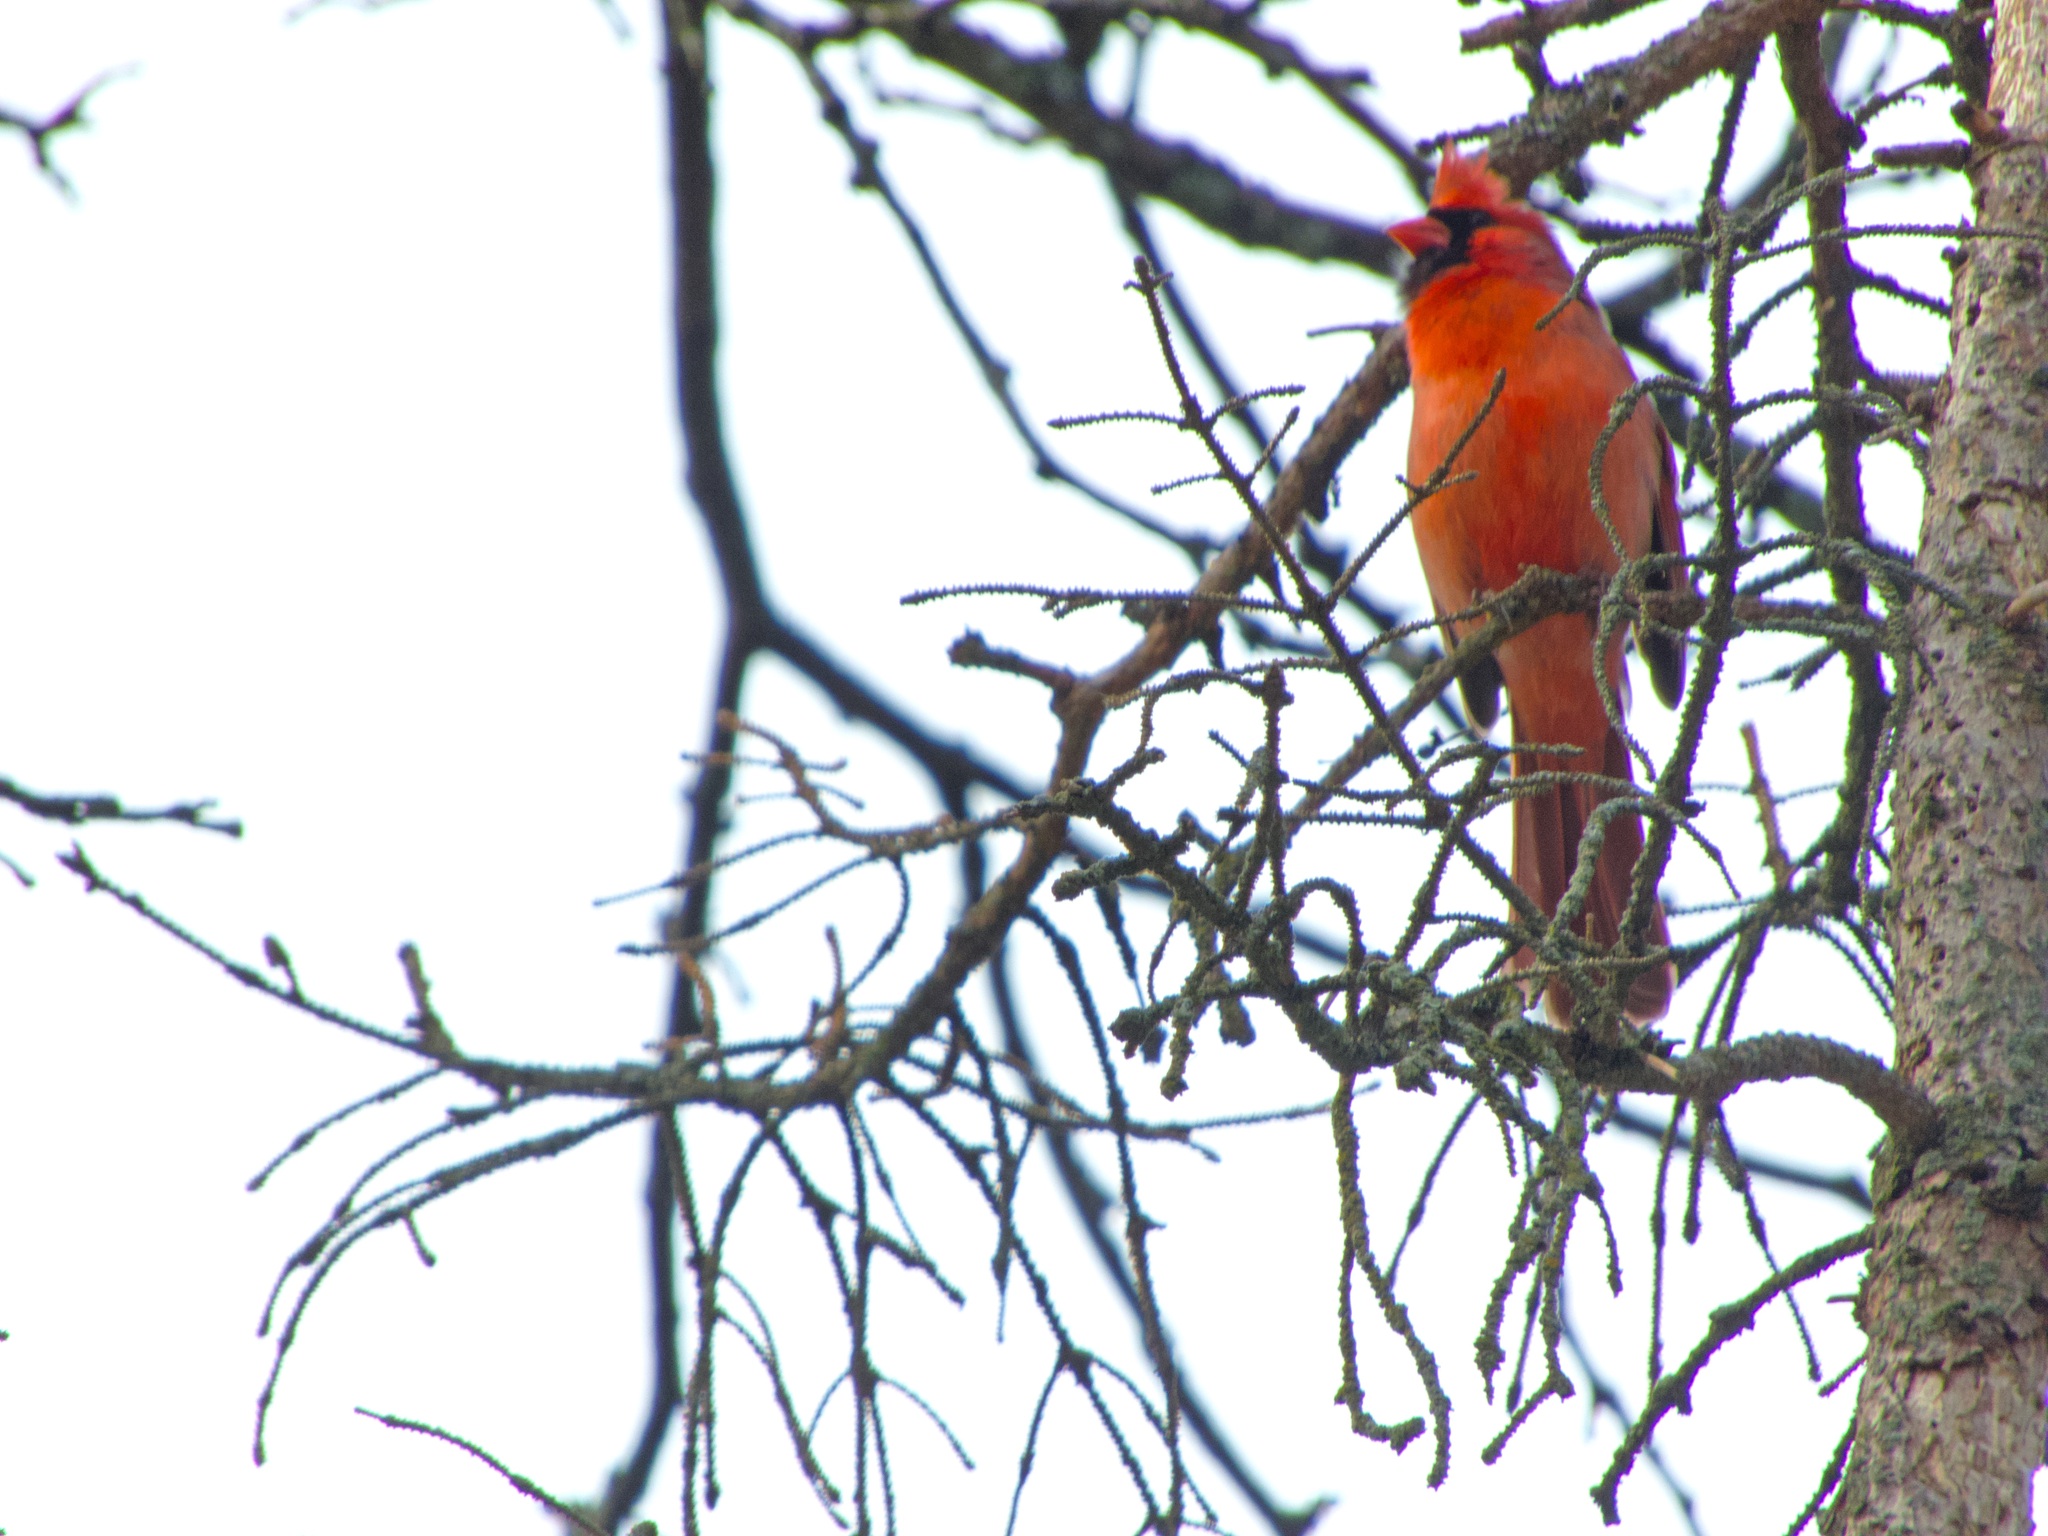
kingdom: Animalia
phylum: Chordata
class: Aves
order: Passeriformes
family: Cardinalidae
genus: Cardinalis
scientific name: Cardinalis cardinalis
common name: Northern cardinal
